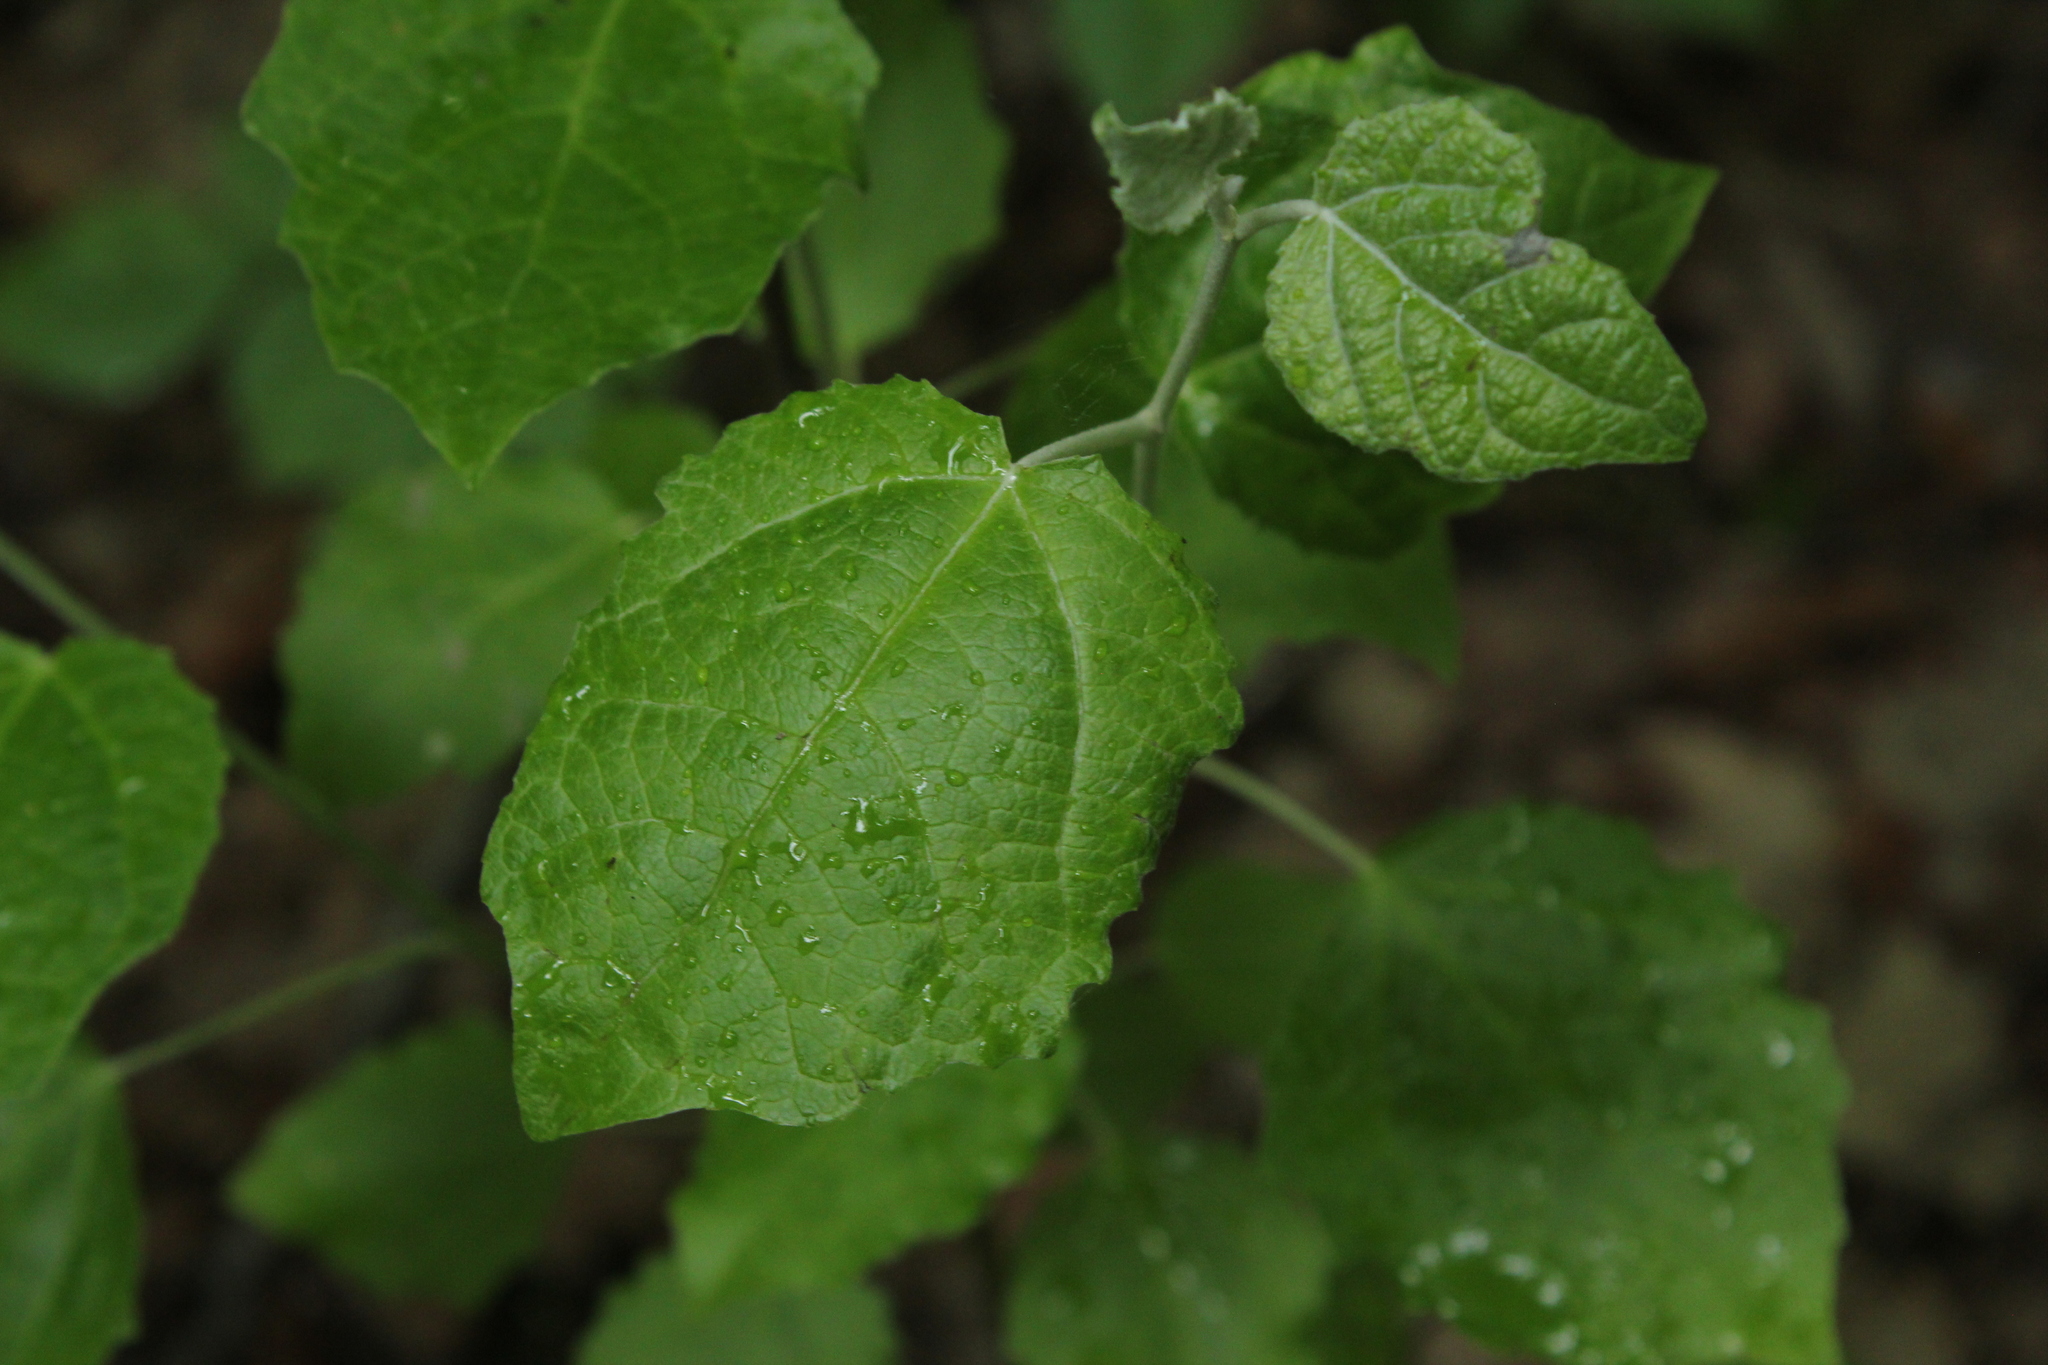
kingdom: Plantae
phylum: Tracheophyta
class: Magnoliopsida
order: Malpighiales
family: Salicaceae
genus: Populus
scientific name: Populus alba
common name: White poplar
